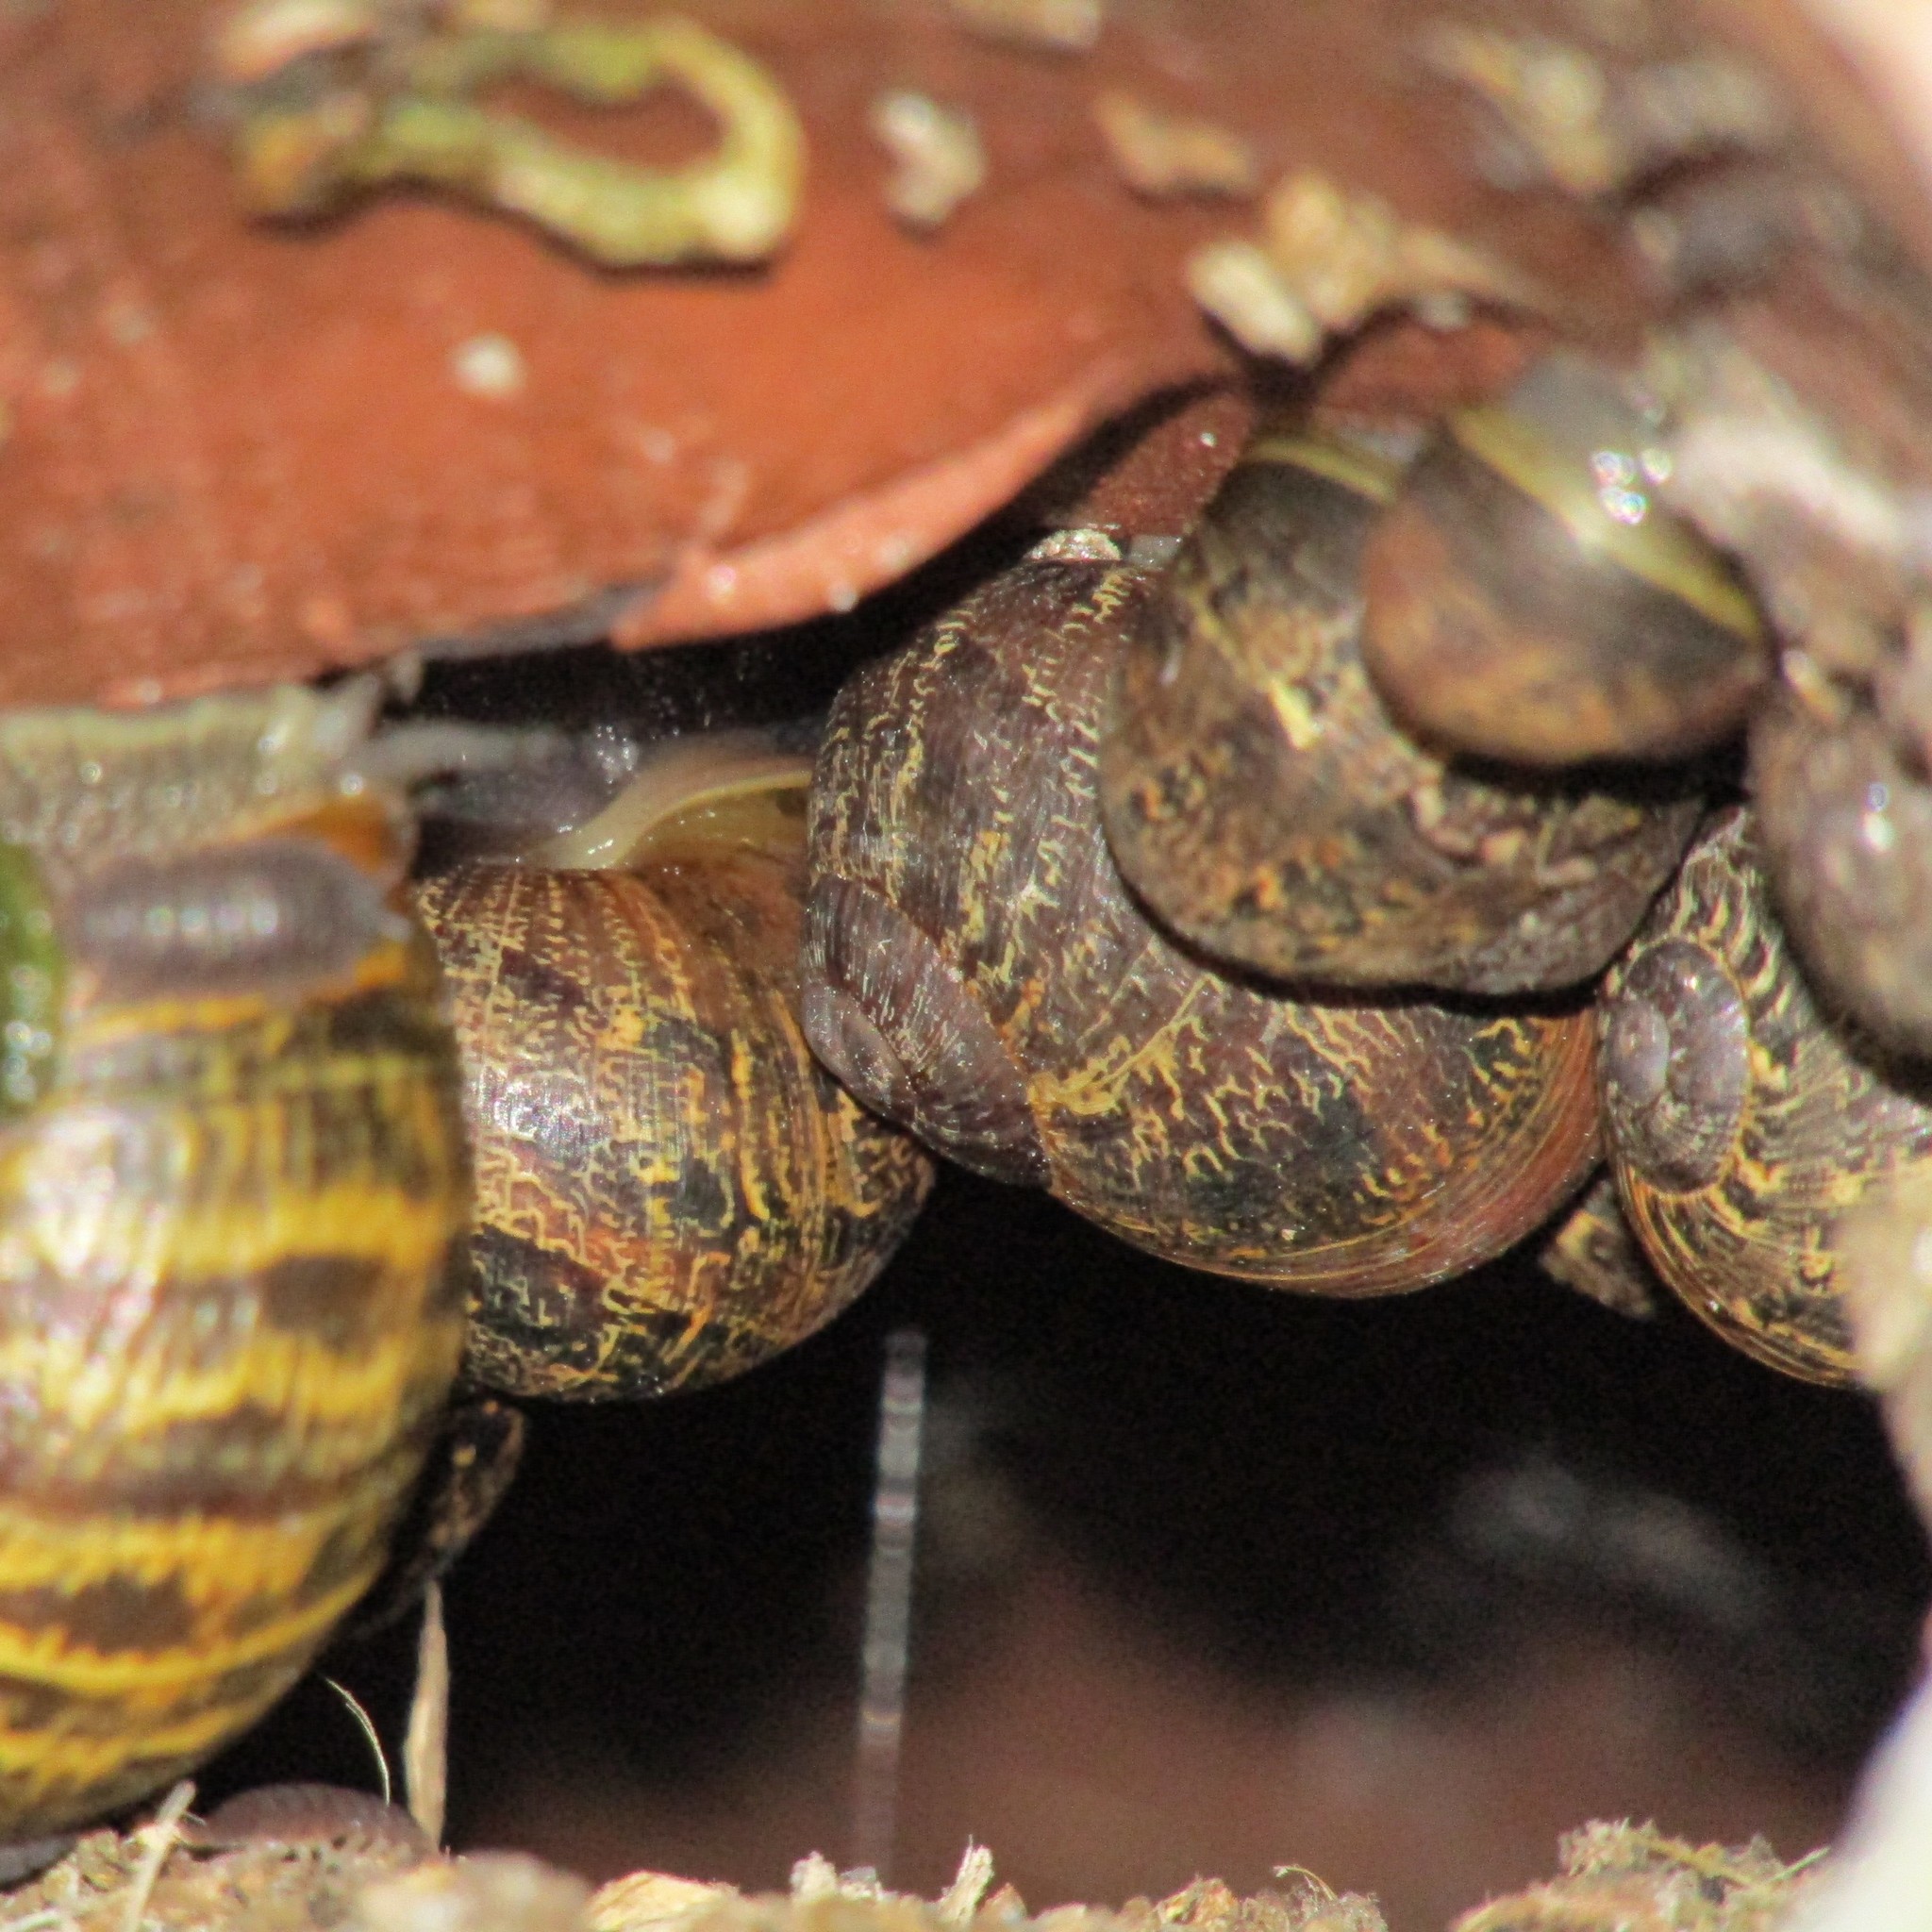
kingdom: Animalia
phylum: Mollusca
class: Gastropoda
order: Stylommatophora
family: Helicidae
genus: Cornu
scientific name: Cornu aspersum
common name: Brown garden snail
